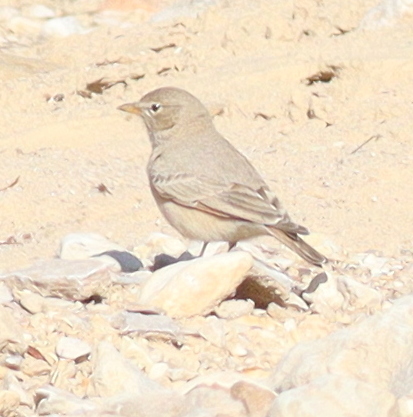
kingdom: Animalia
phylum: Chordata
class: Aves
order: Passeriformes
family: Alaudidae
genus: Ammomanes
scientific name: Ammomanes deserti
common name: Desert lark
